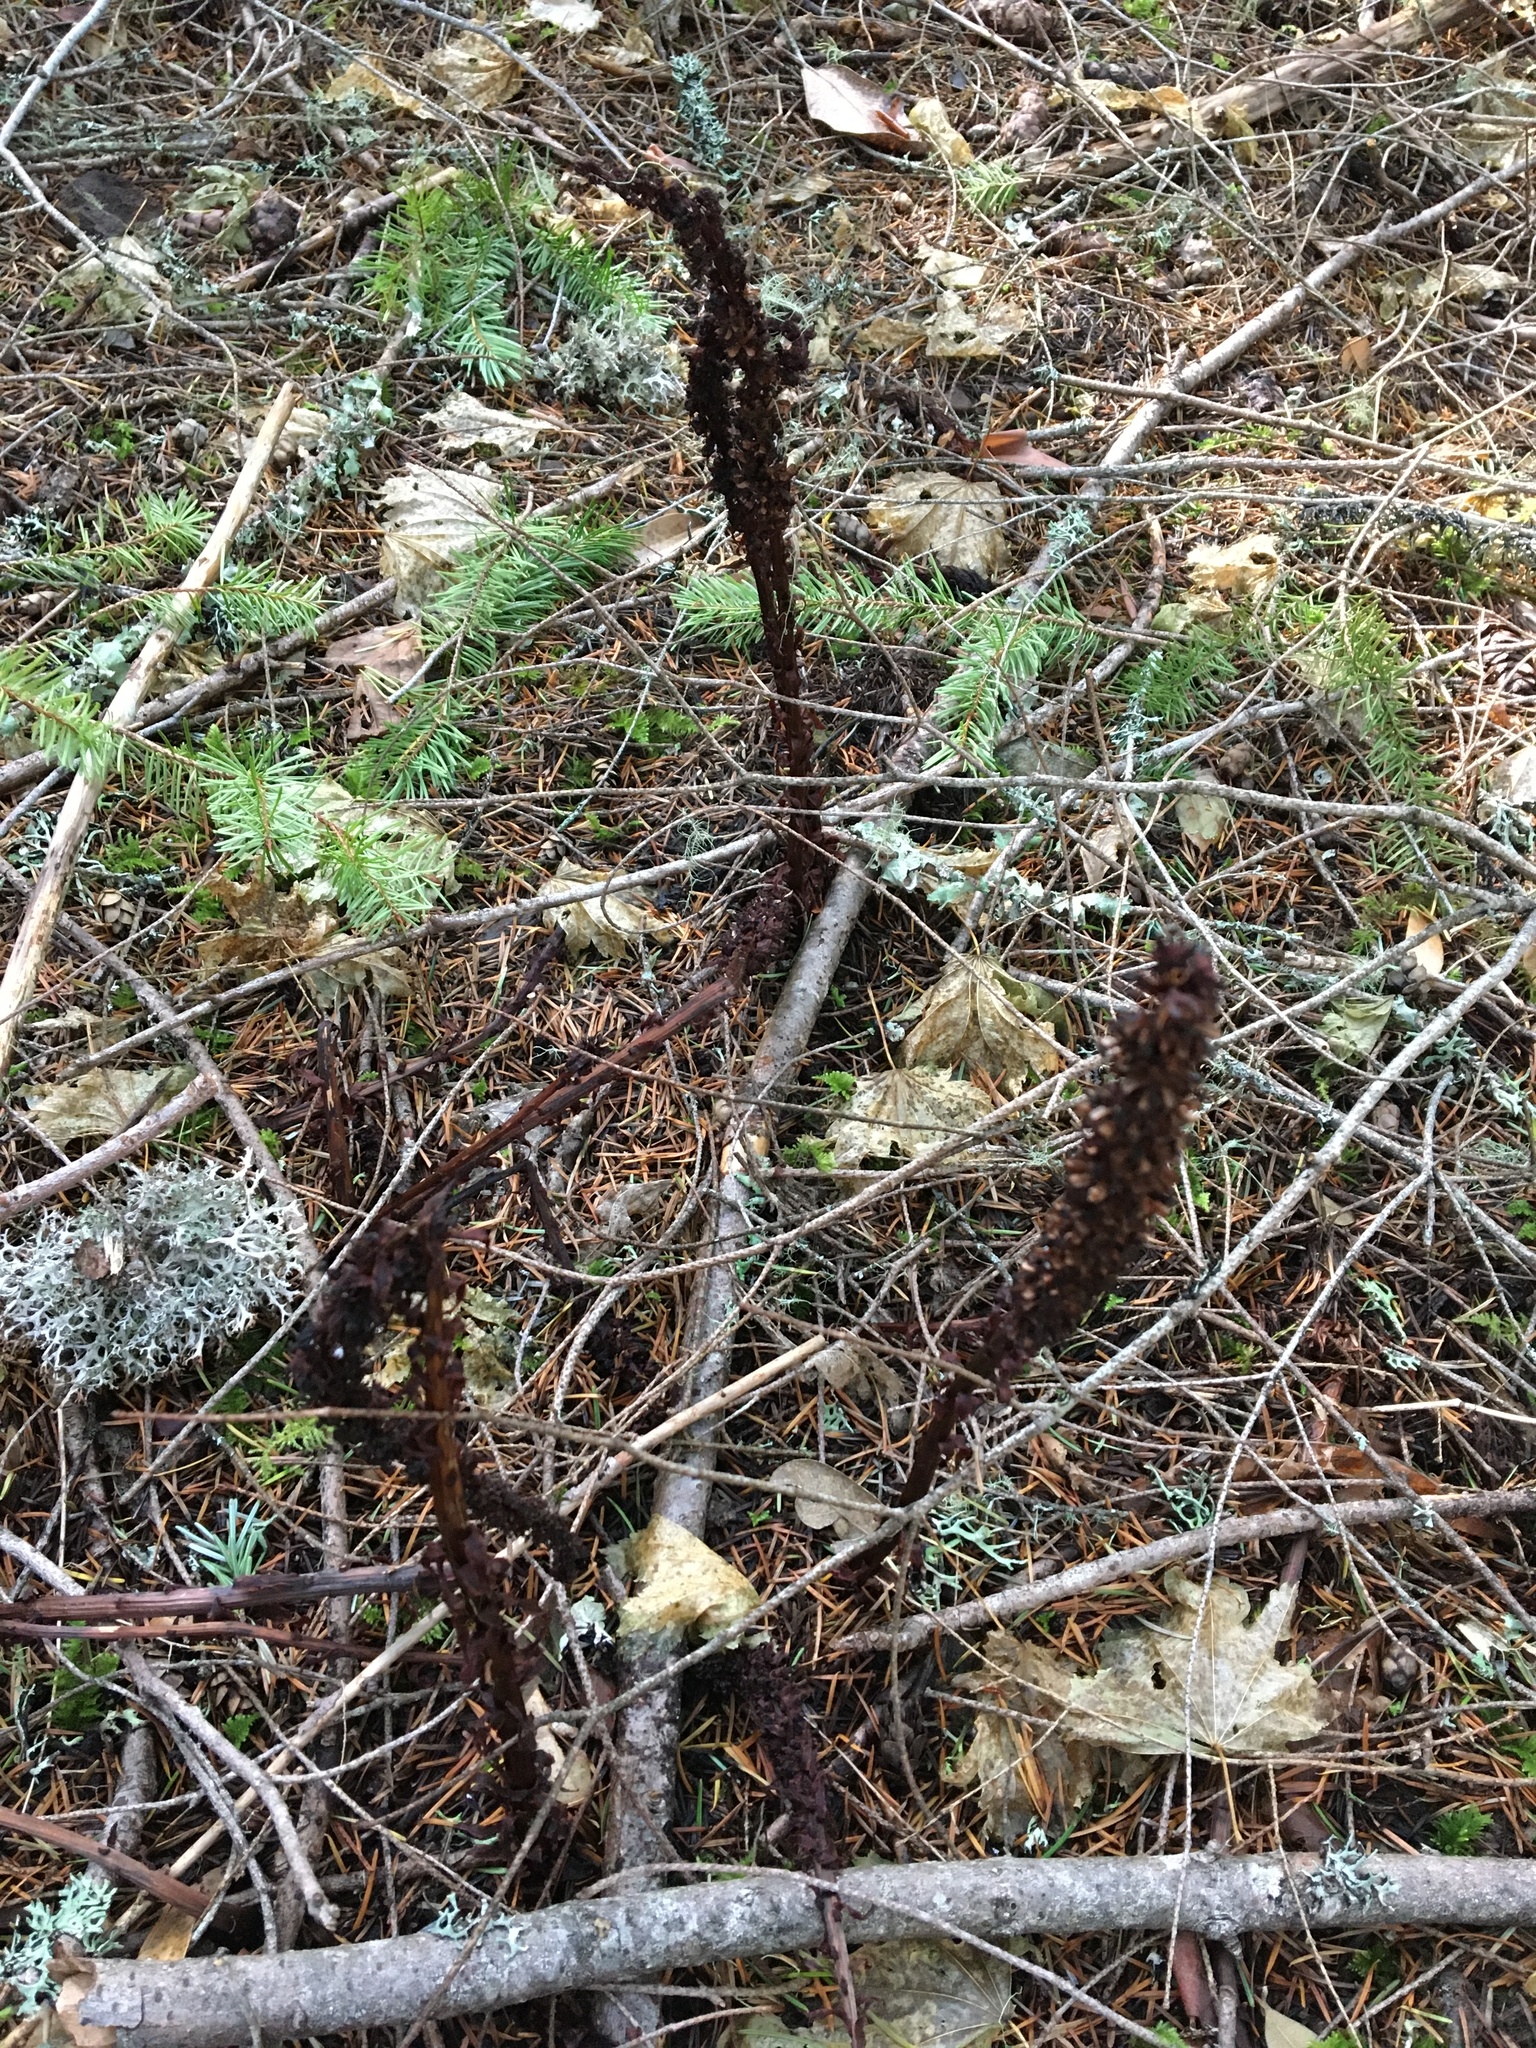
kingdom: Plantae
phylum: Tracheophyta
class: Magnoliopsida
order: Ericales
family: Ericaceae
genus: Allotropa
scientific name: Allotropa virgata
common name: Candy-striped allotropa
